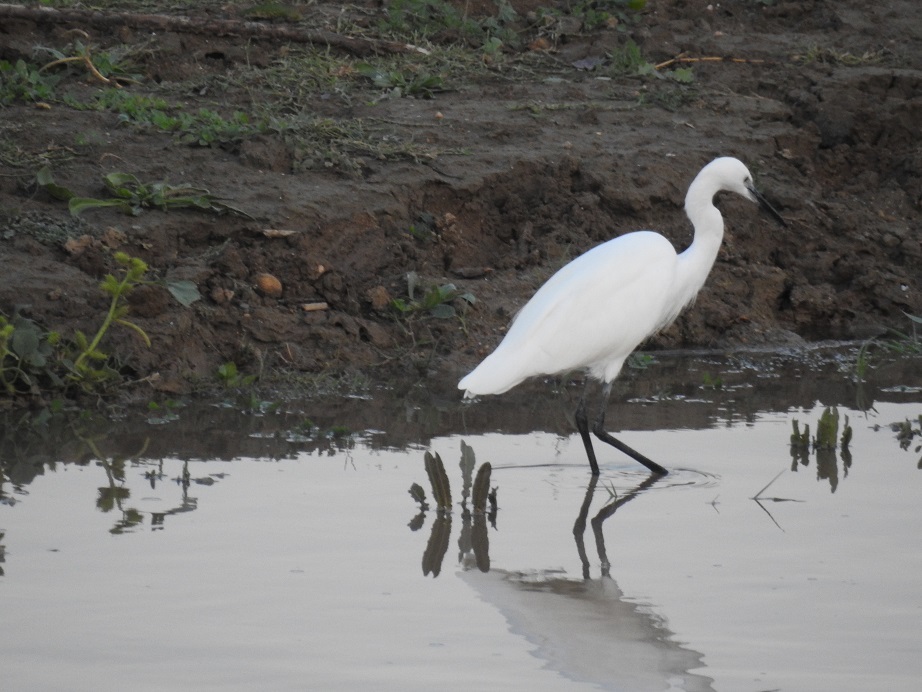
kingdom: Animalia
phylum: Chordata
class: Aves
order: Pelecaniformes
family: Ardeidae
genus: Egretta
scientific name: Egretta garzetta
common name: Little egret
